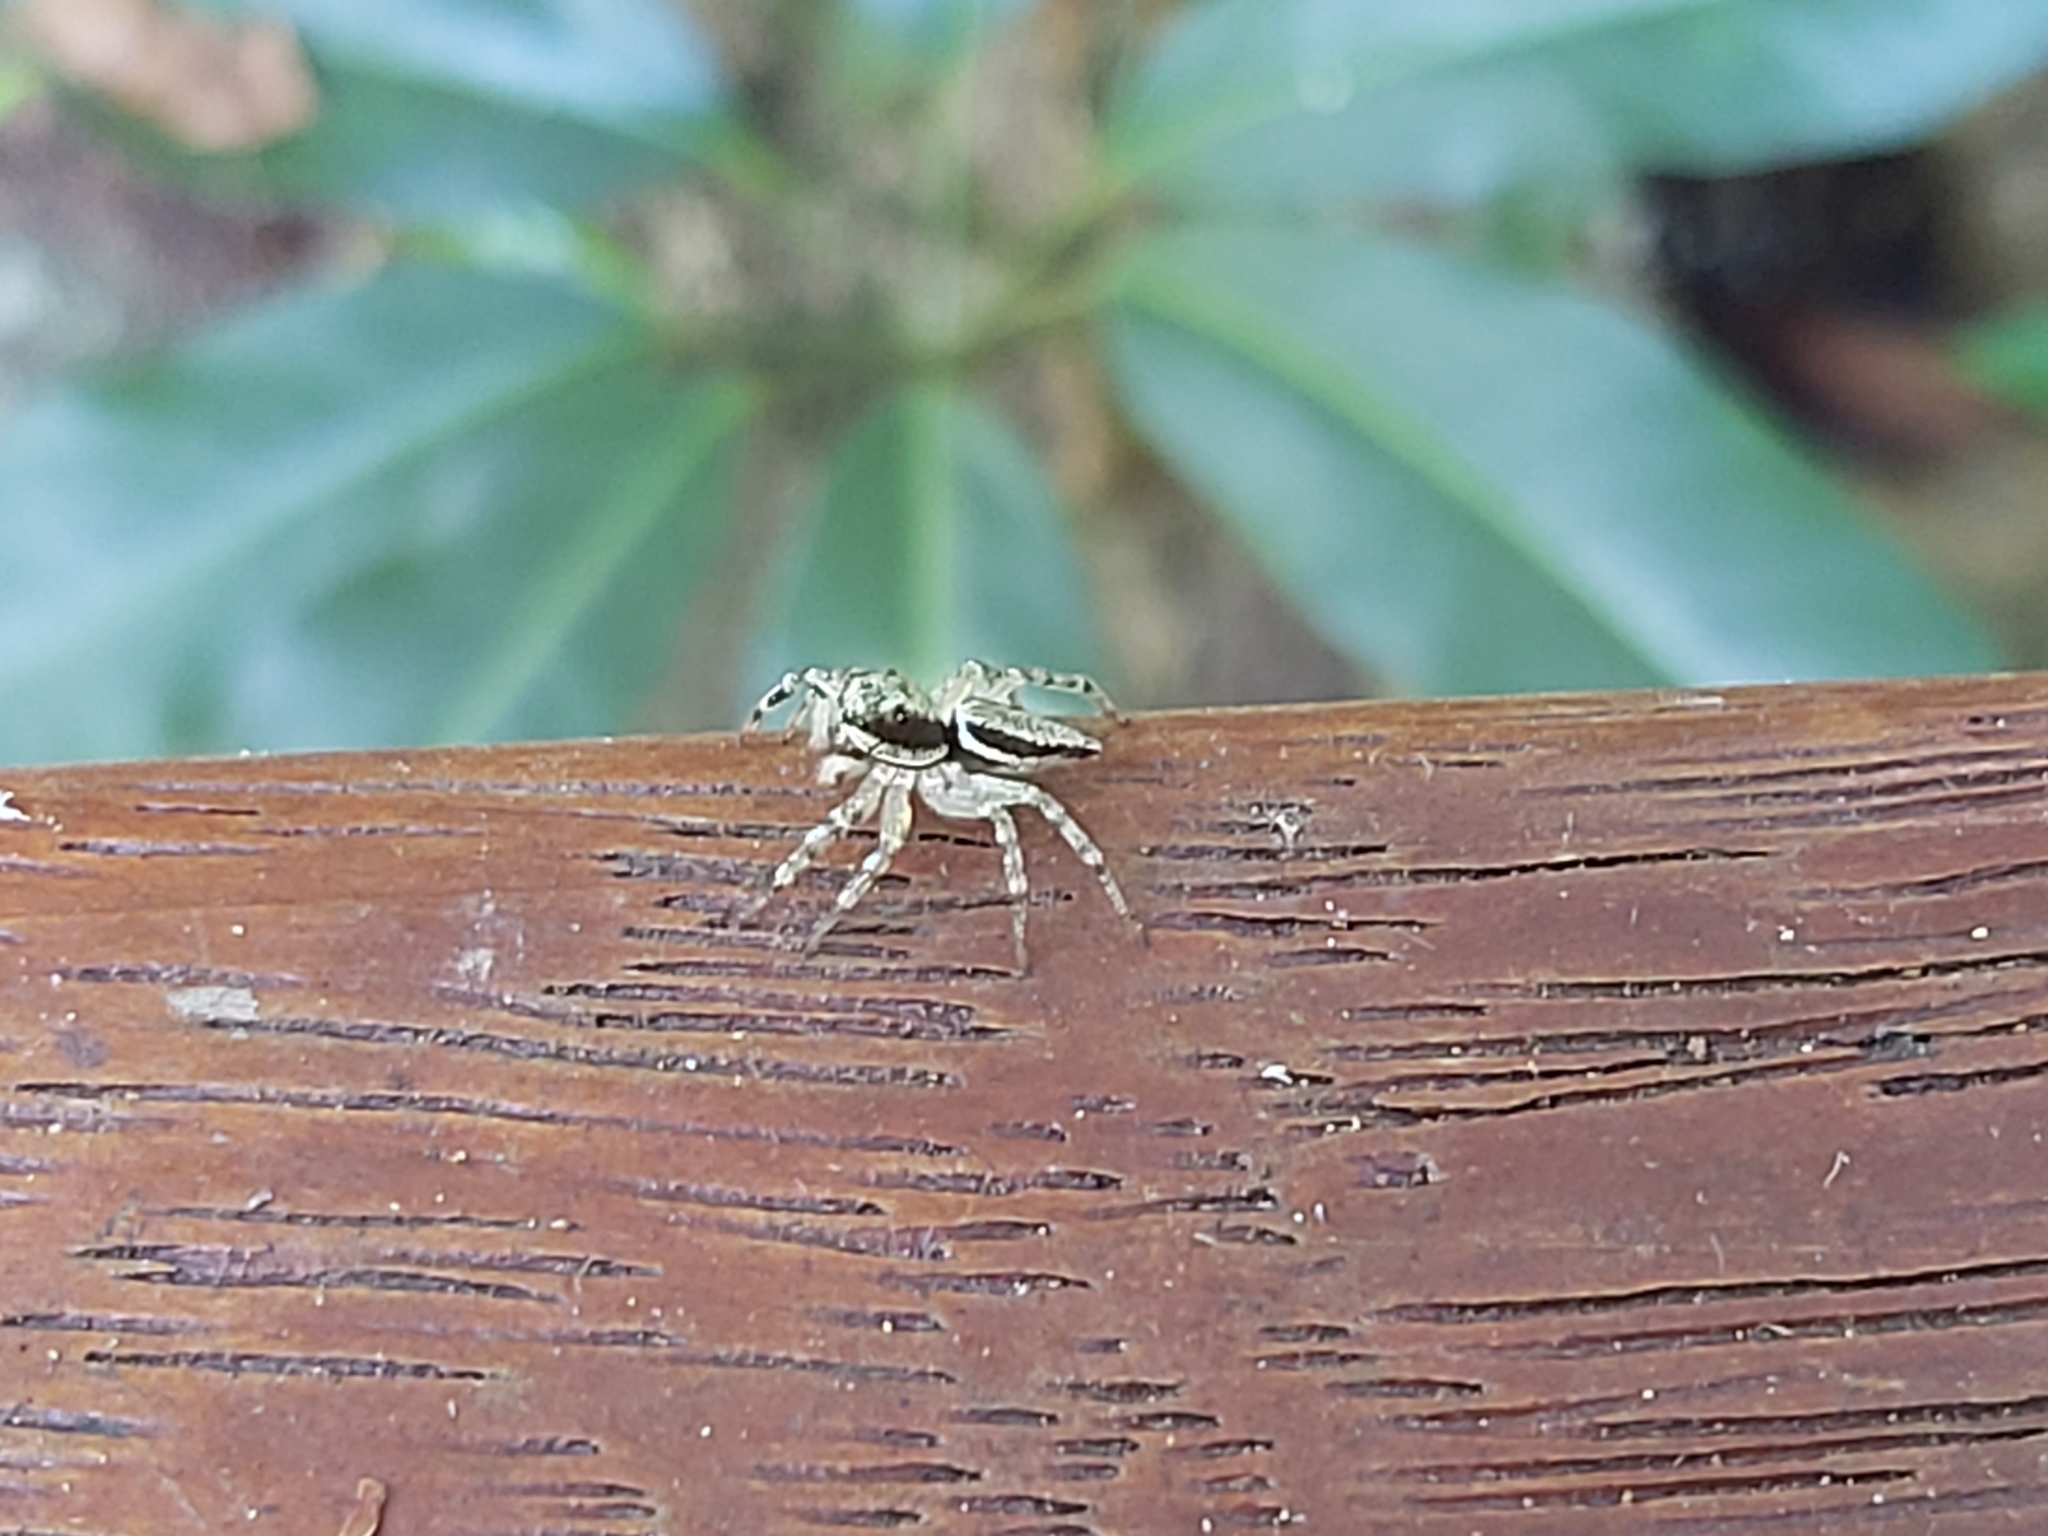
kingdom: Animalia
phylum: Arthropoda
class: Arachnida
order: Araneae
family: Salticidae
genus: Zenodorus
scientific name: Zenodorus swiftorum
